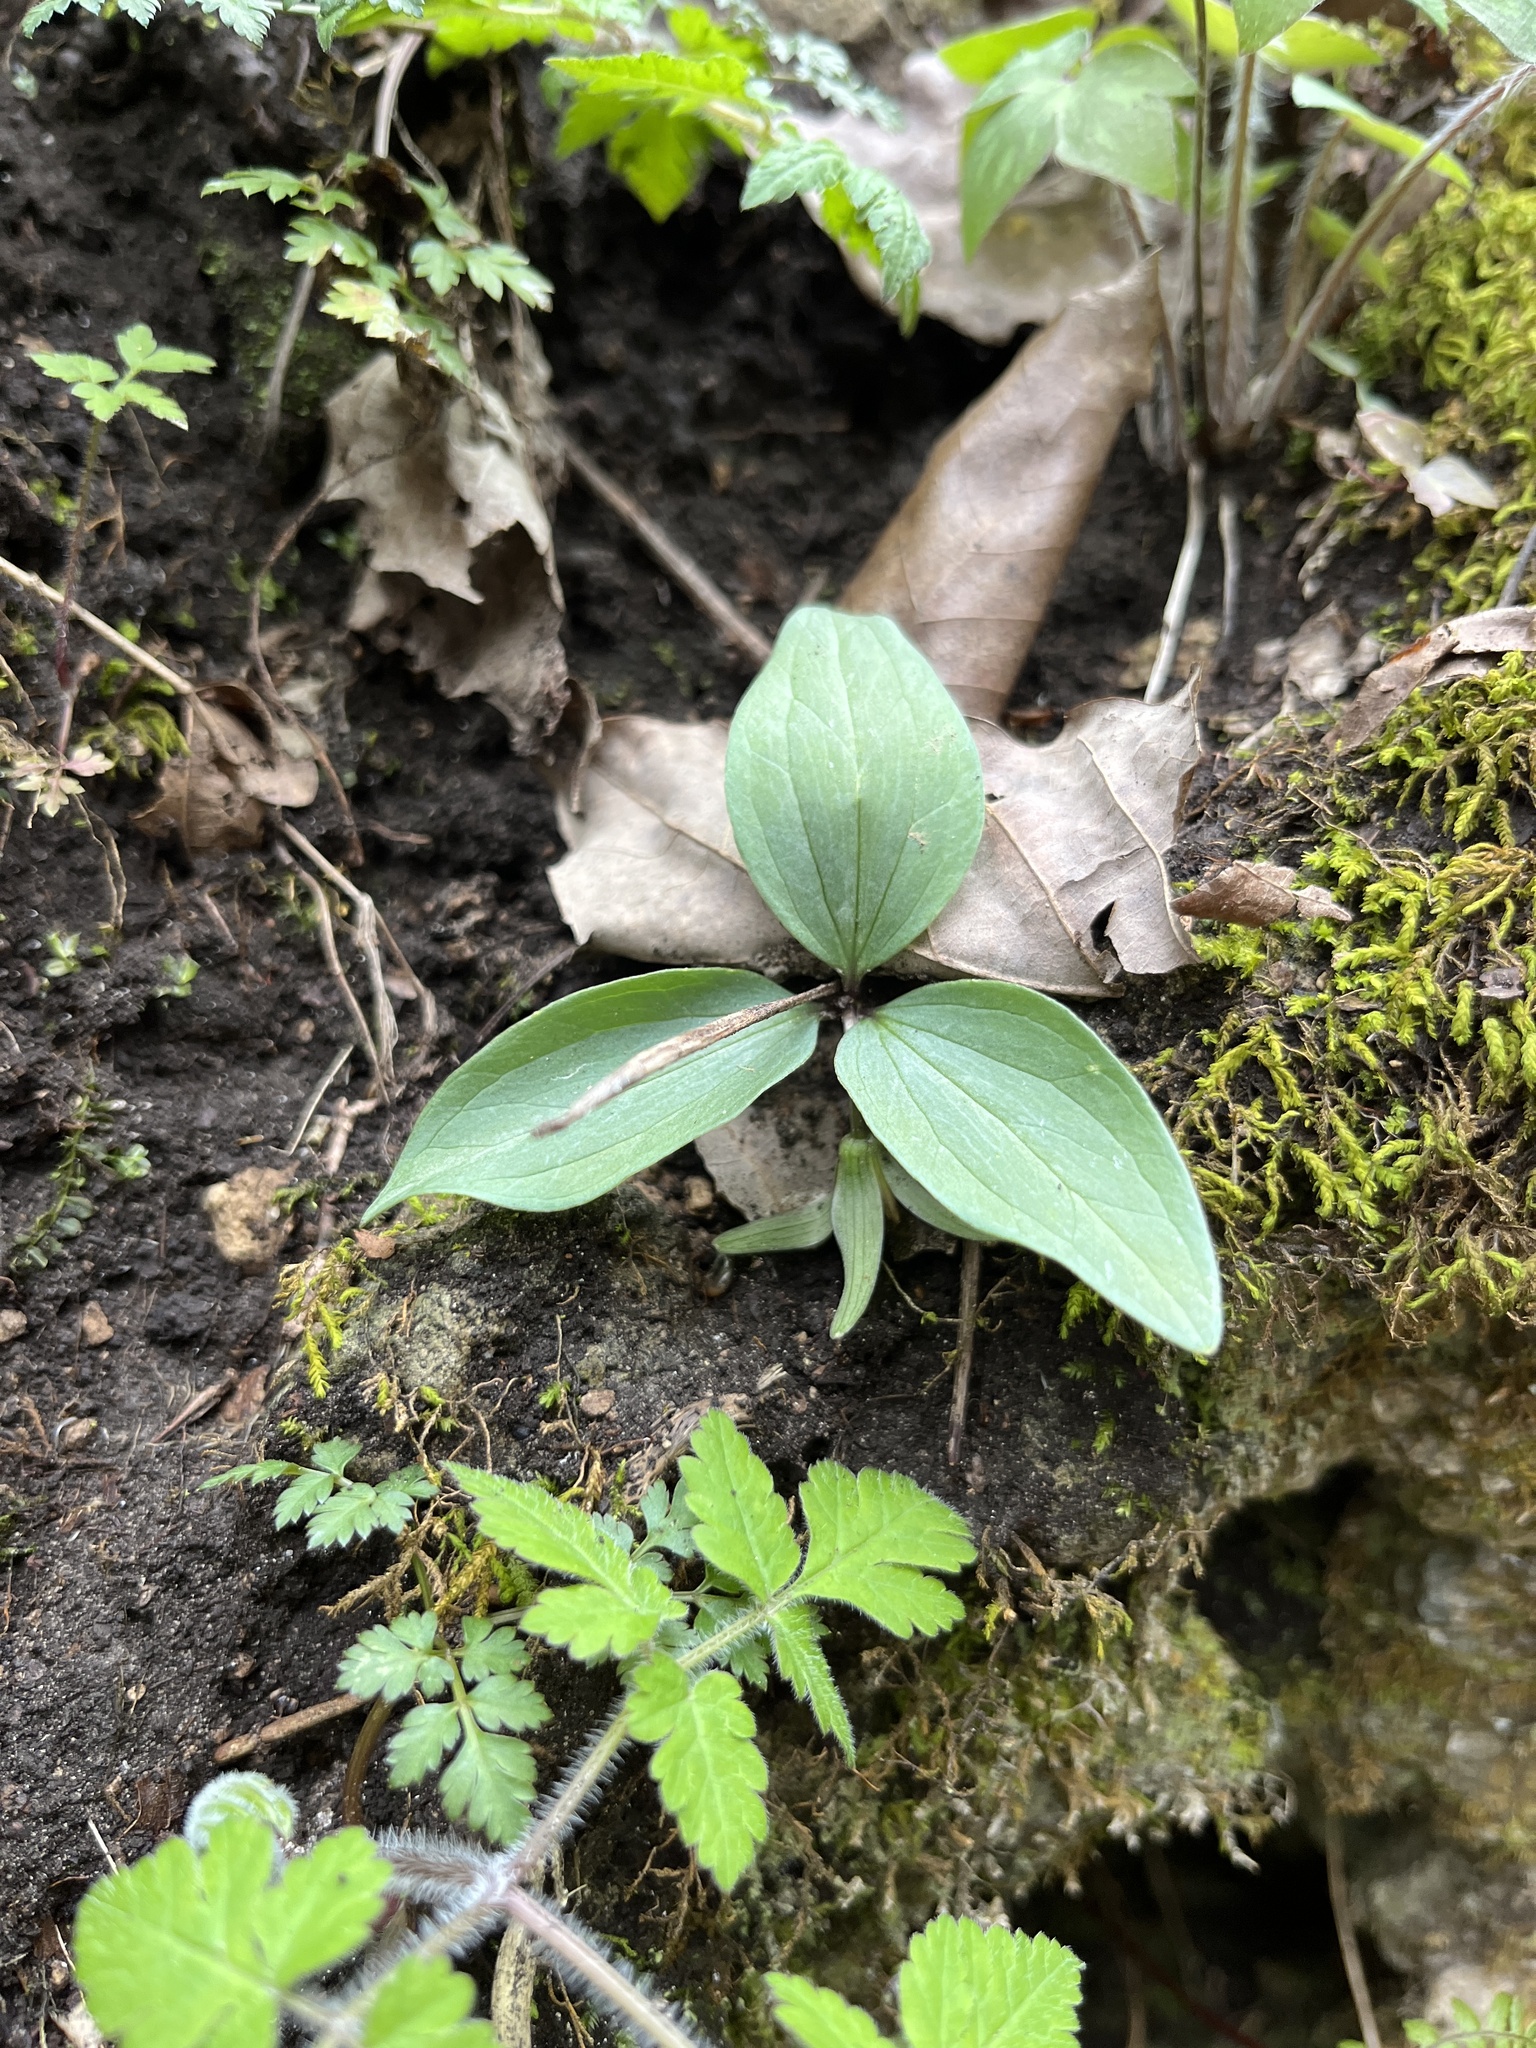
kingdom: Plantae
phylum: Tracheophyta
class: Liliopsida
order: Liliales
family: Melanthiaceae
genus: Trillium
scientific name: Trillium nivale
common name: Dwarf white trillium
